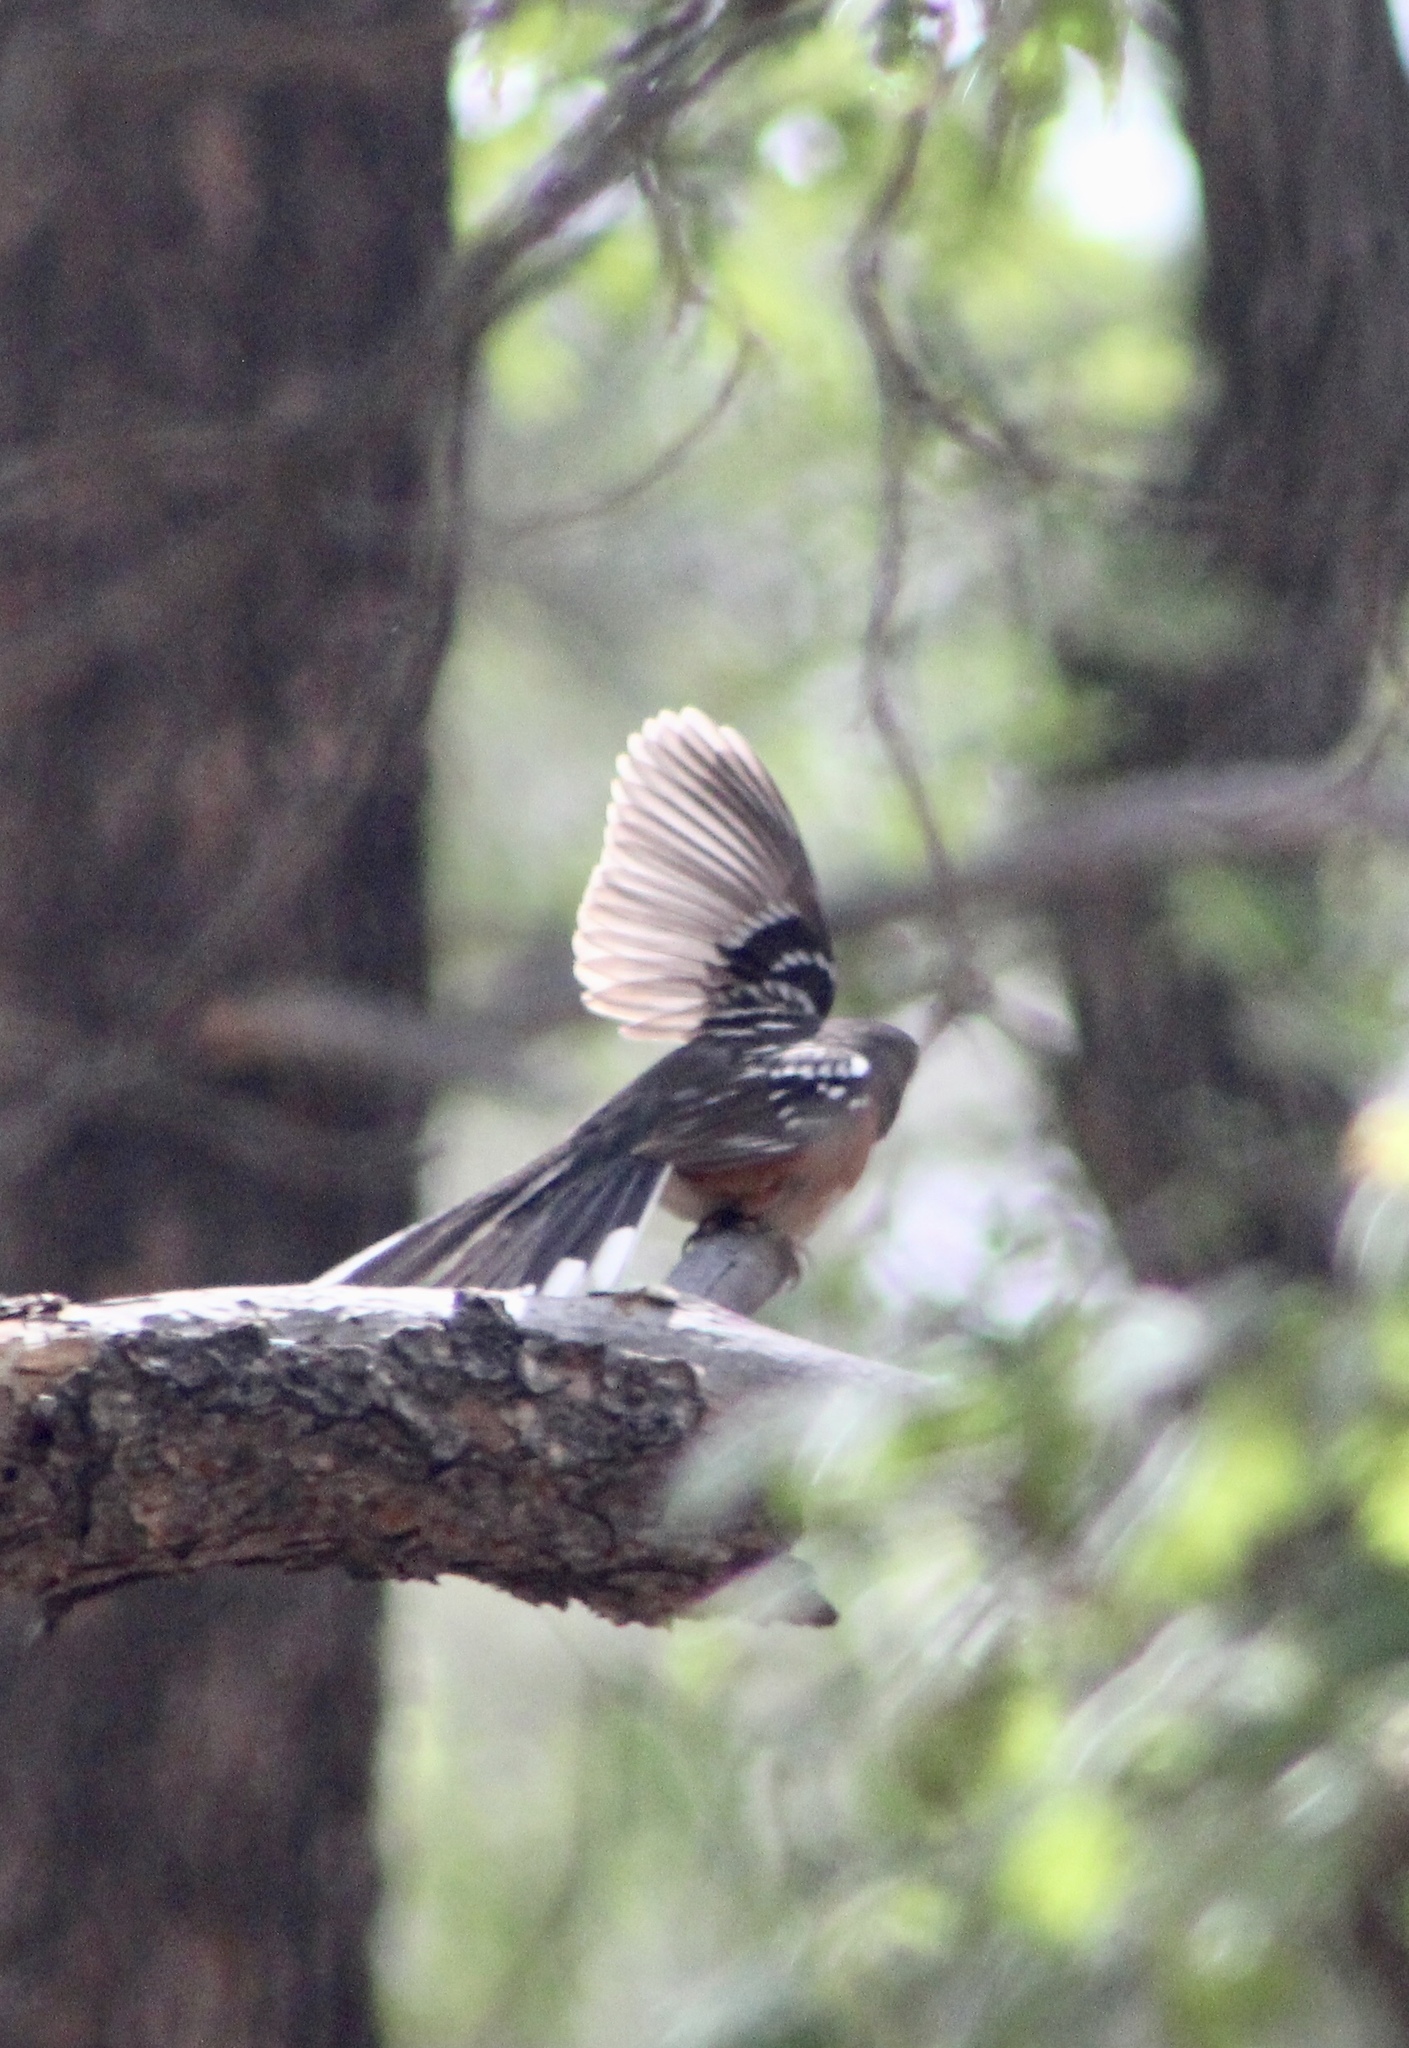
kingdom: Animalia
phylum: Chordata
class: Aves
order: Passeriformes
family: Passerellidae
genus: Pipilo
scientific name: Pipilo maculatus
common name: Spotted towhee
